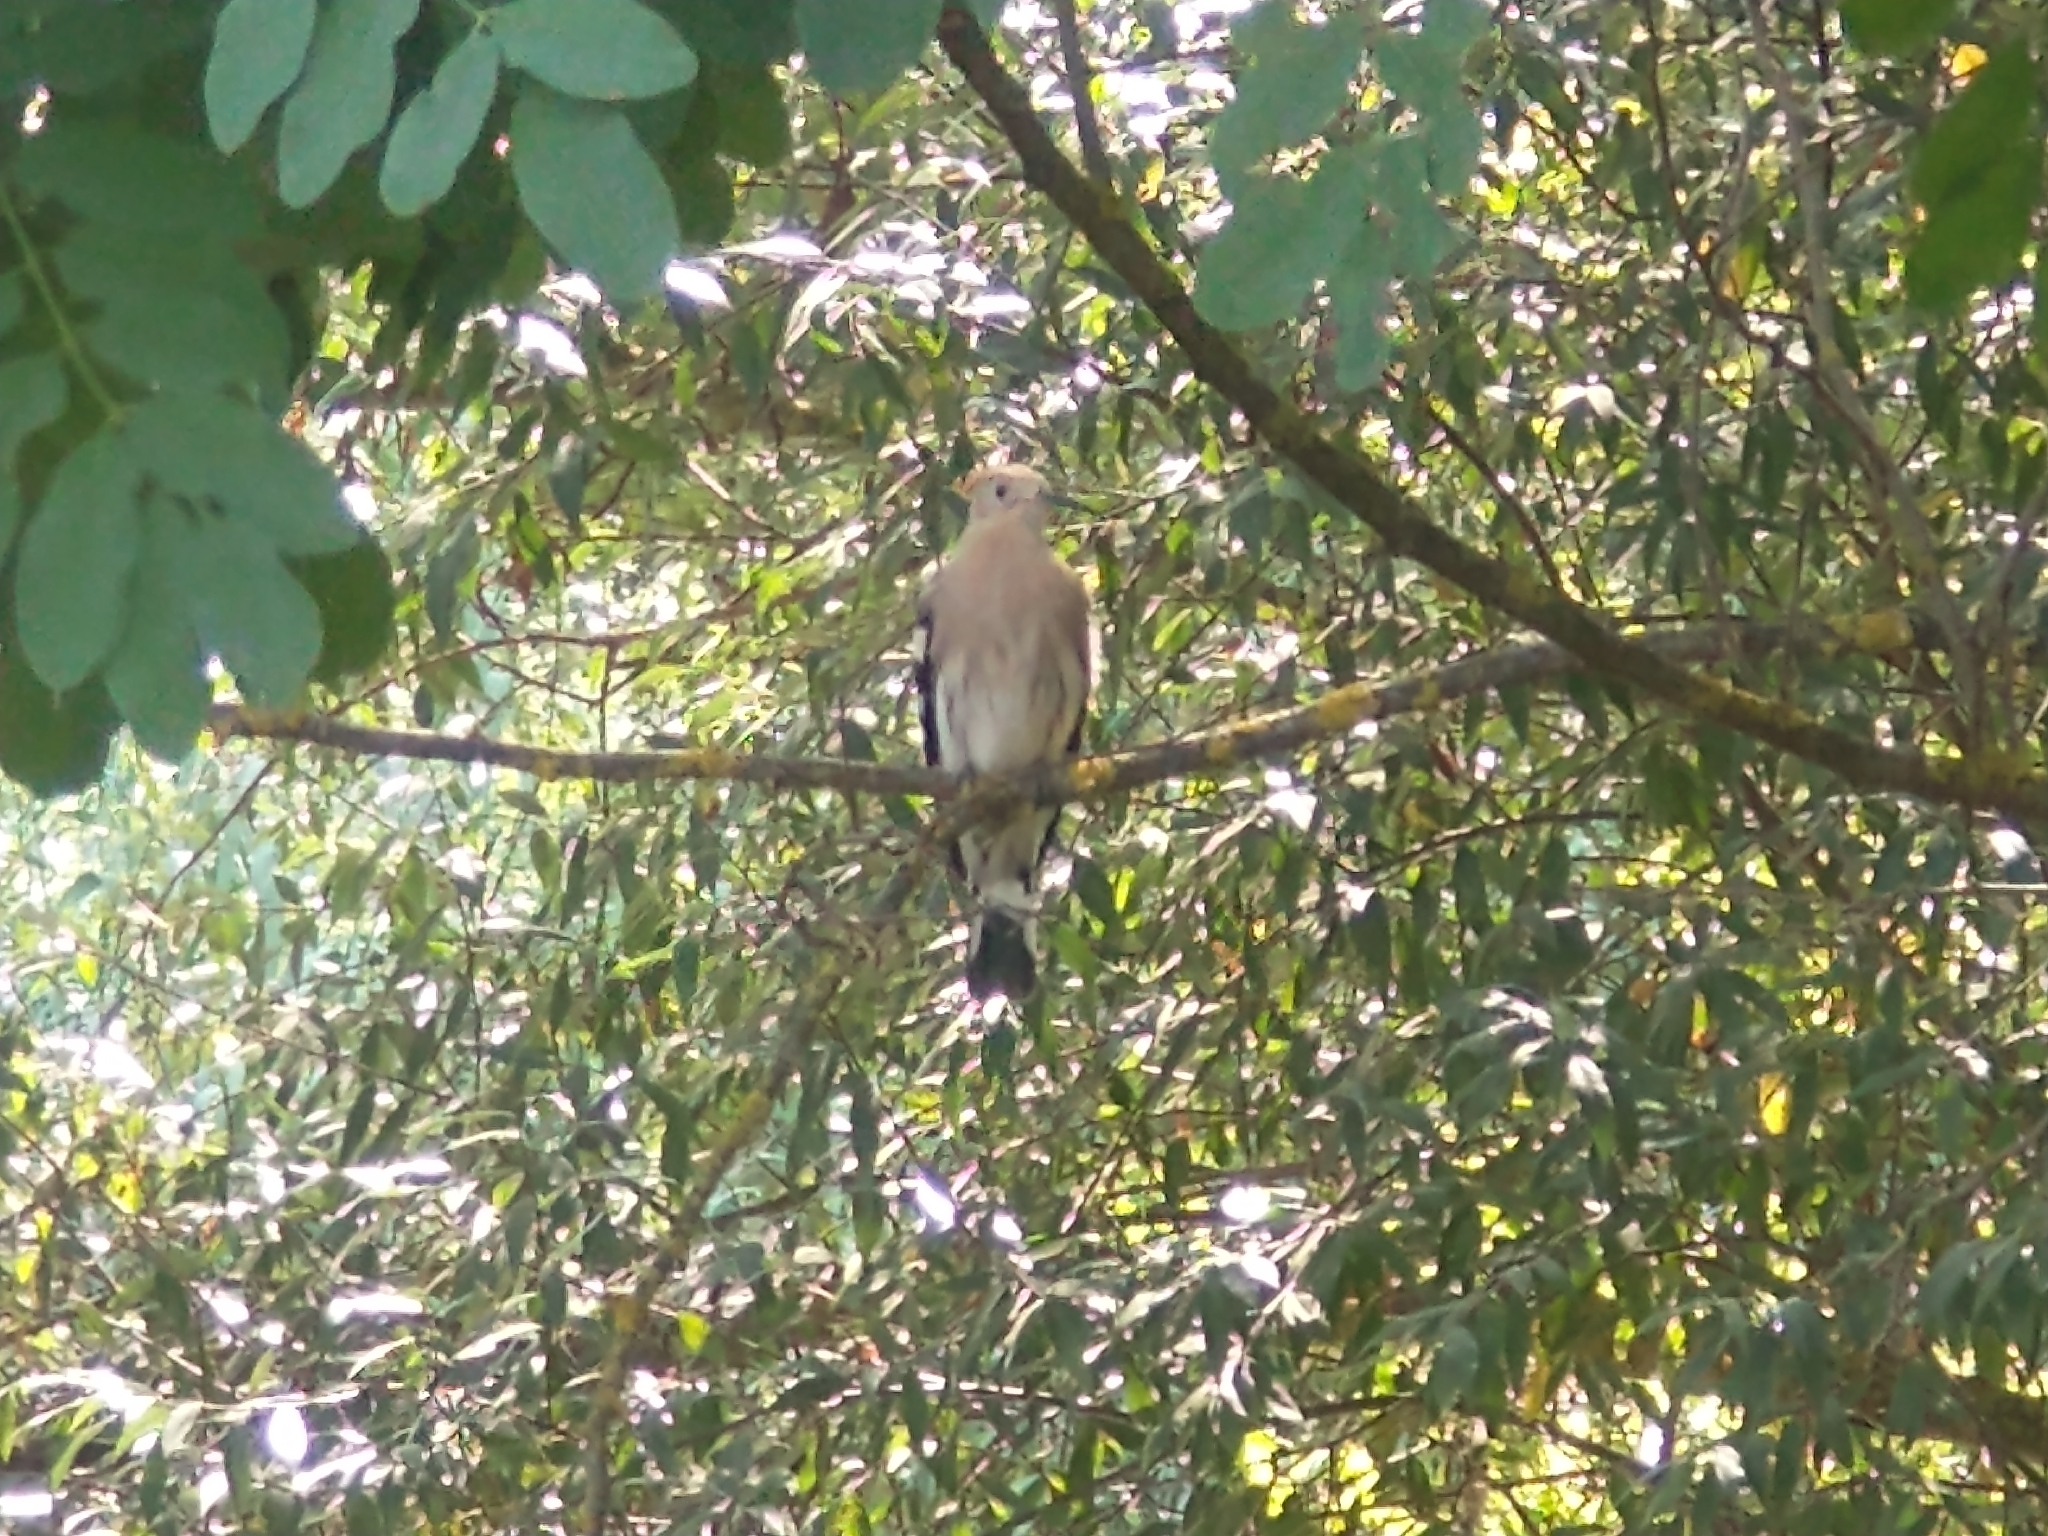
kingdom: Animalia
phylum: Chordata
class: Aves
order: Bucerotiformes
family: Upupidae
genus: Upupa
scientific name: Upupa epops
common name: Eurasian hoopoe
